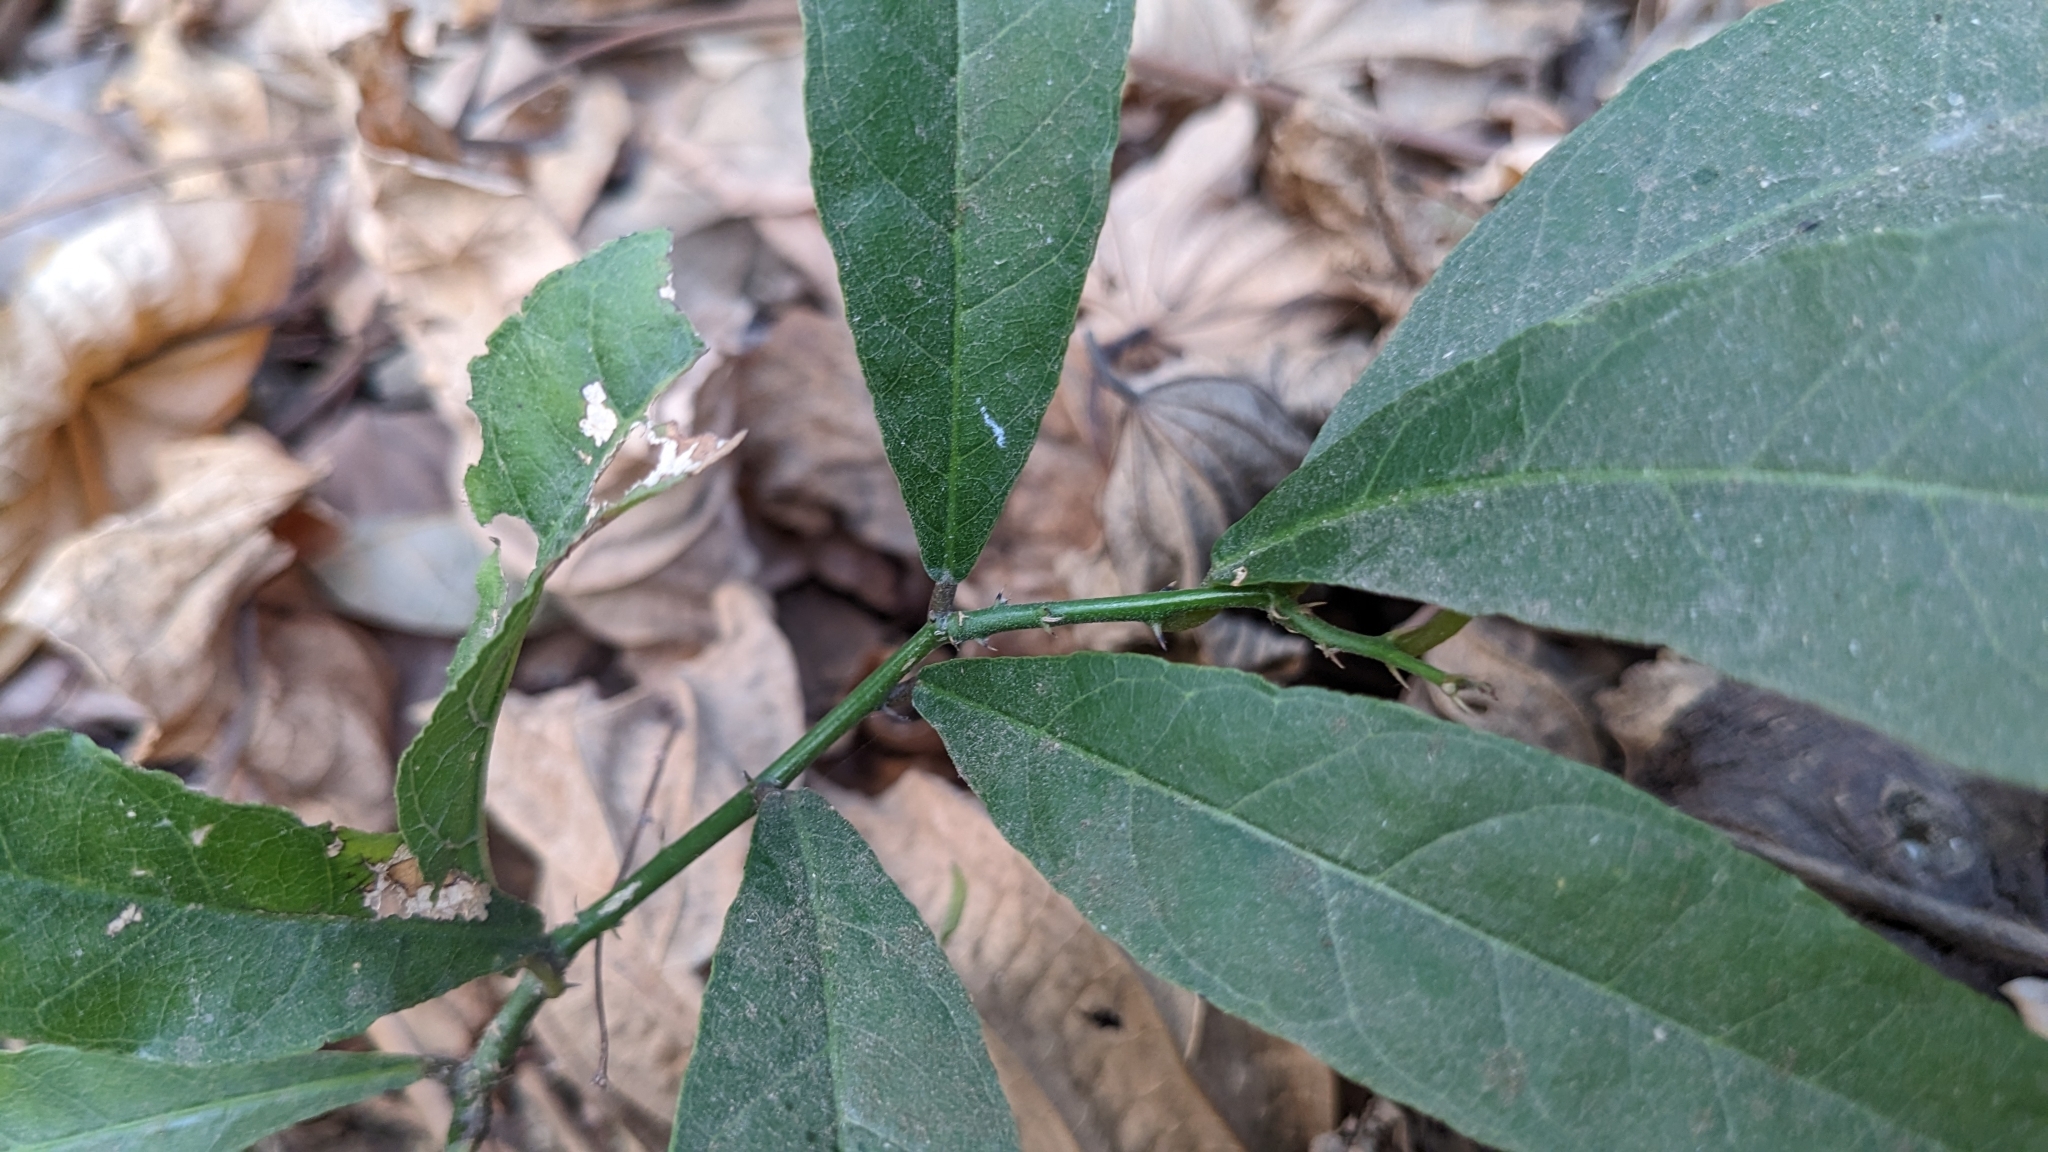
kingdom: Plantae
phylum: Tracheophyta
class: Magnoliopsida
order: Brassicales
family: Capparaceae
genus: Capparis
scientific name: Capparis micracantha
